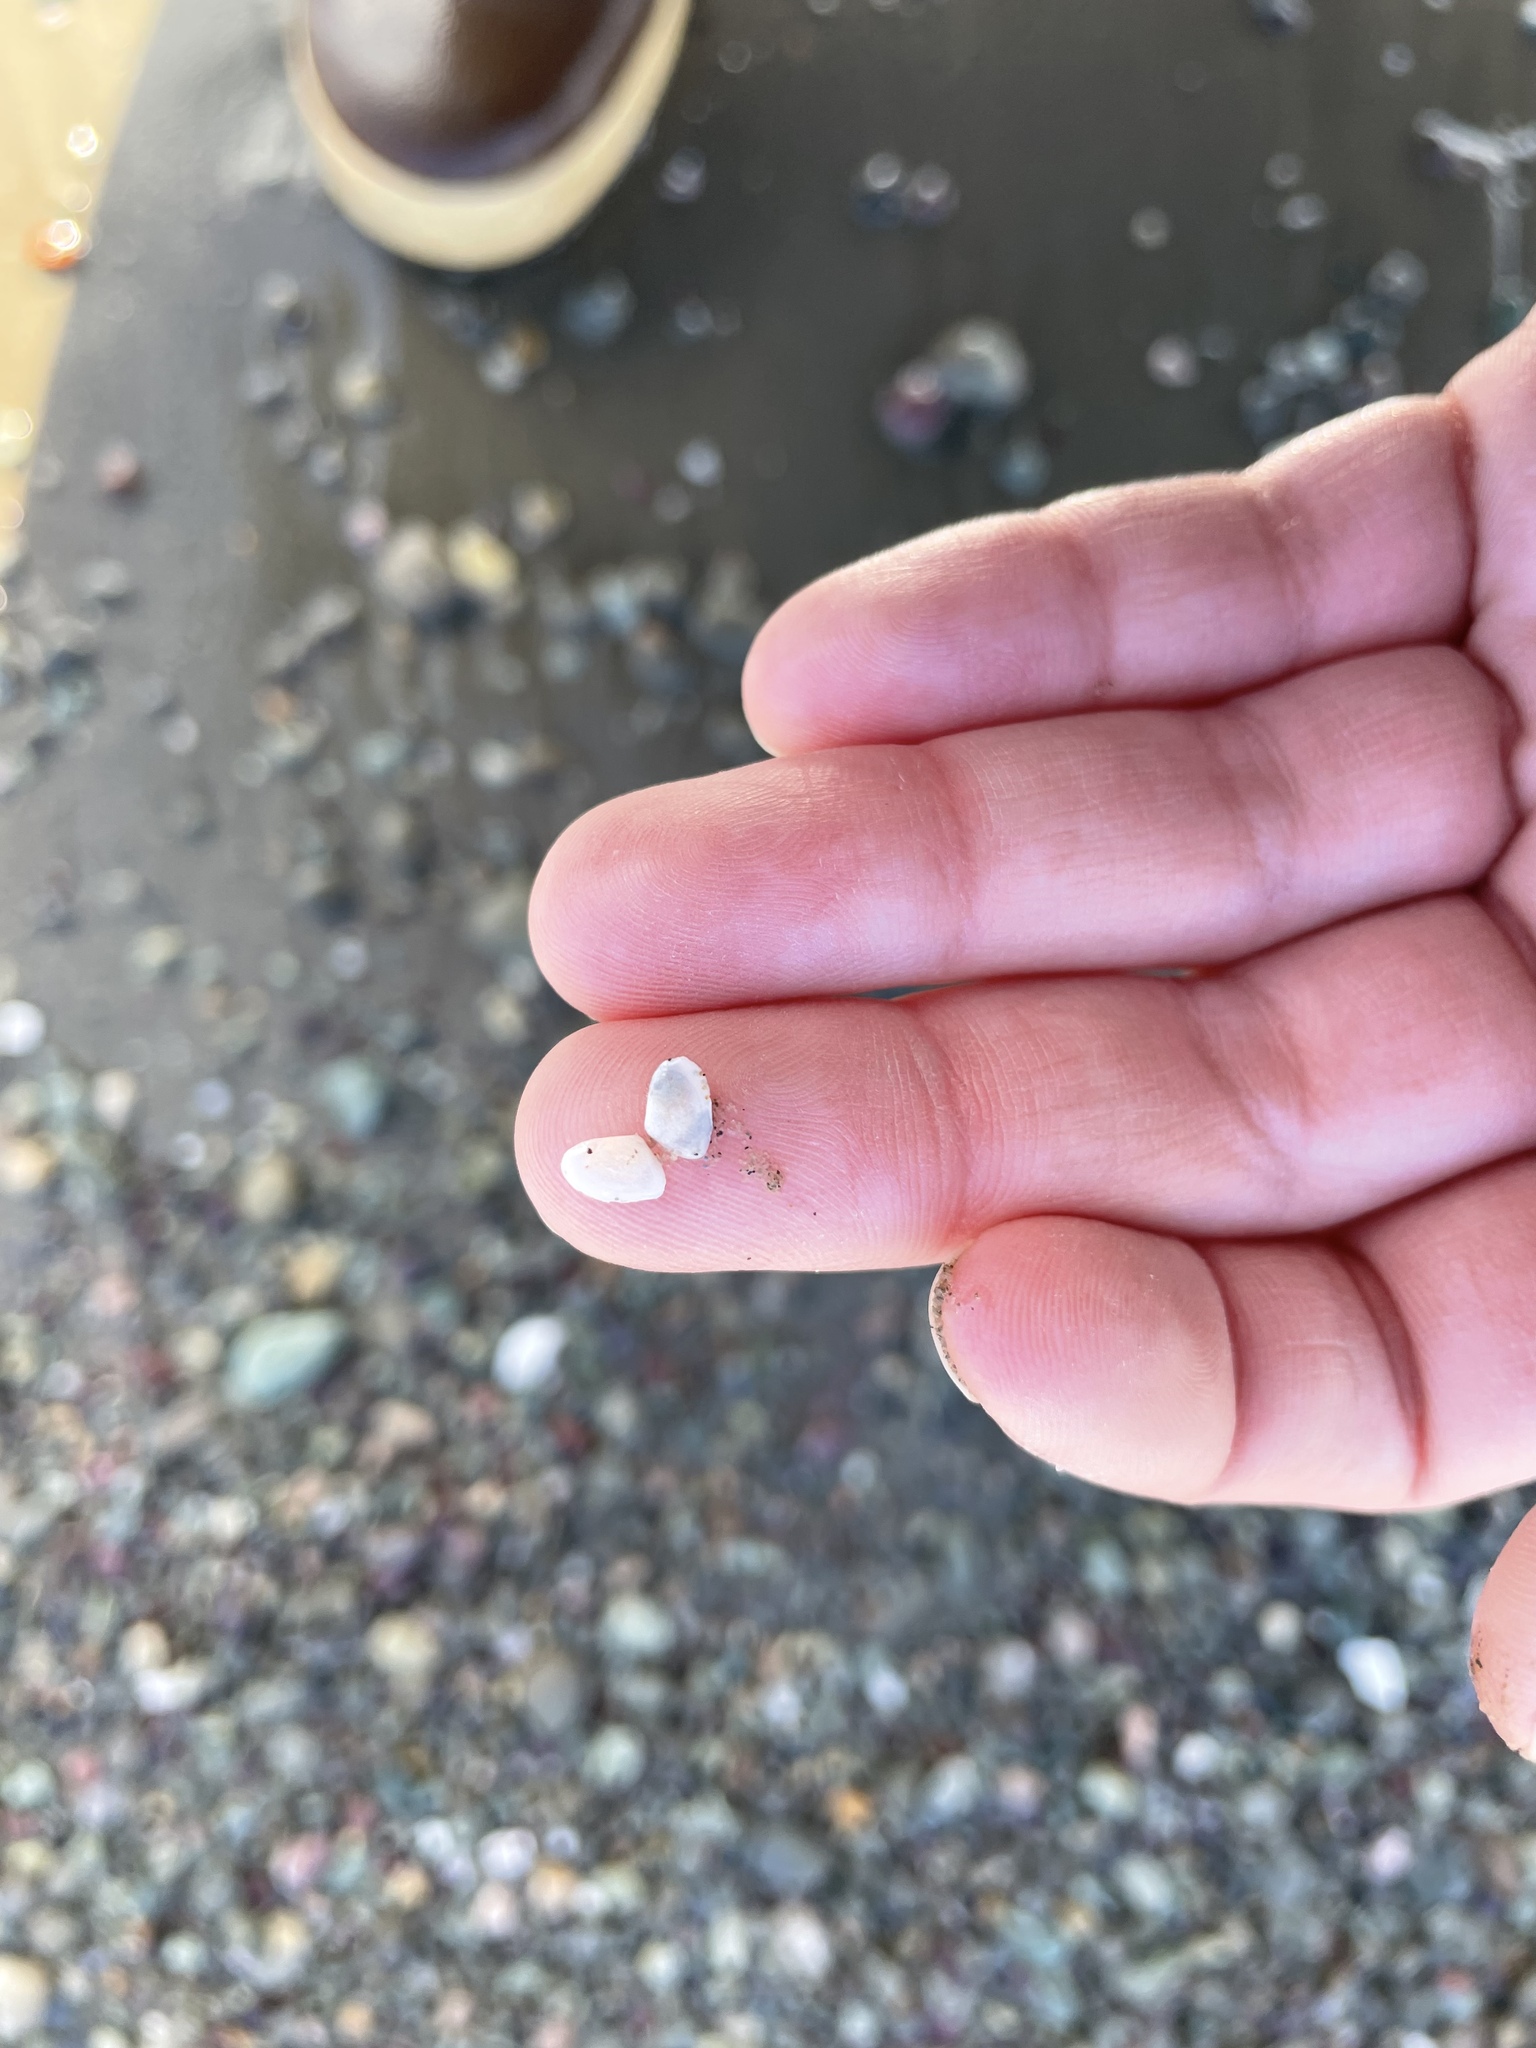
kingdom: Animalia
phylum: Mollusca
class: Bivalvia
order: Cardiida
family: Tellinidae
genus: Ameritella
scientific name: Ameritella agilis
